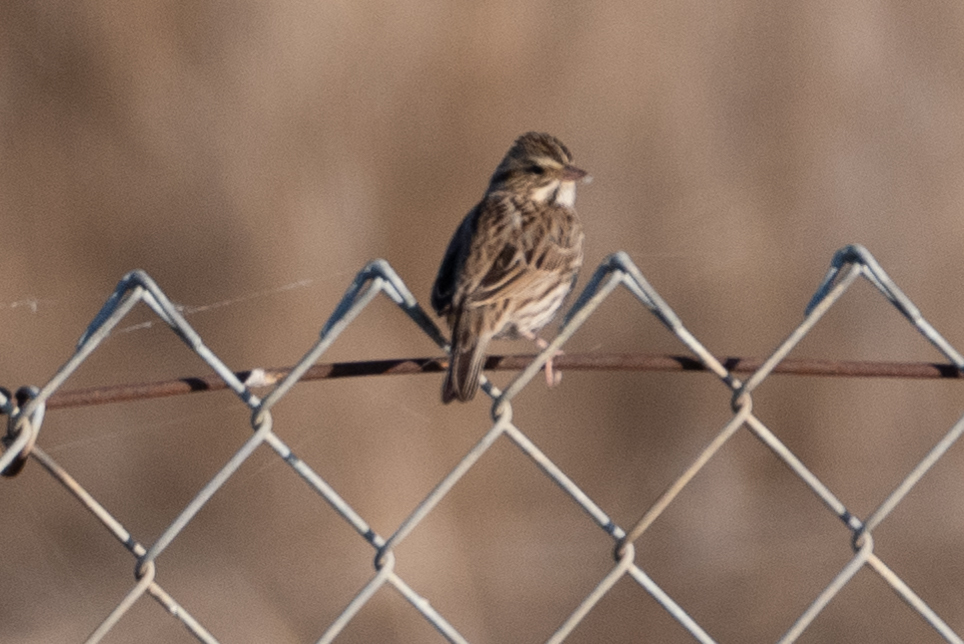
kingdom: Animalia
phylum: Chordata
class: Aves
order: Passeriformes
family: Passerellidae
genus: Passerculus
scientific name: Passerculus sandwichensis
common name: Savannah sparrow
